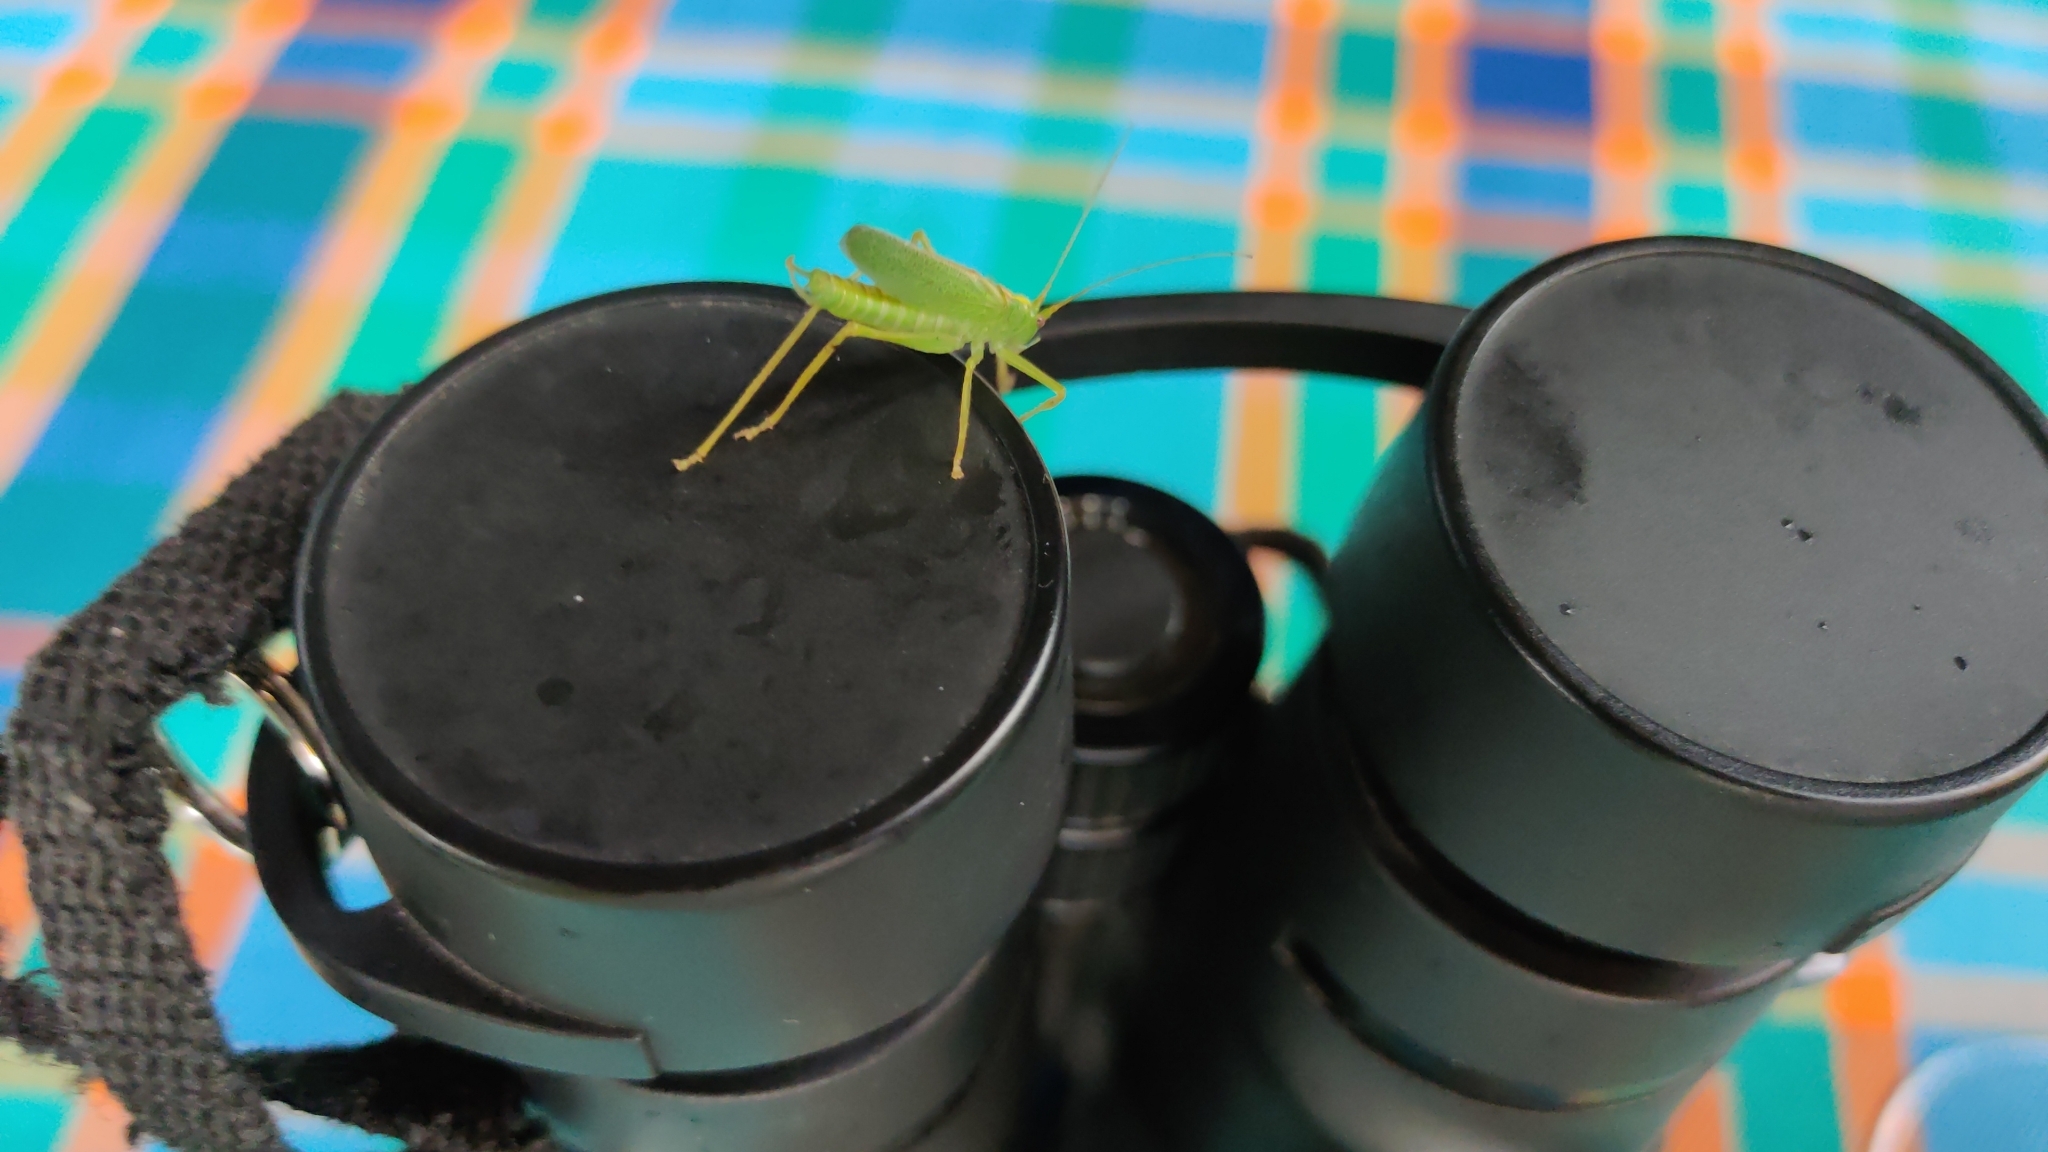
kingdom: Animalia
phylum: Arthropoda
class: Insecta
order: Orthoptera
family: Tettigoniidae
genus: Meconema
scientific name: Meconema thalassinum
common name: Oak bush-cricket
